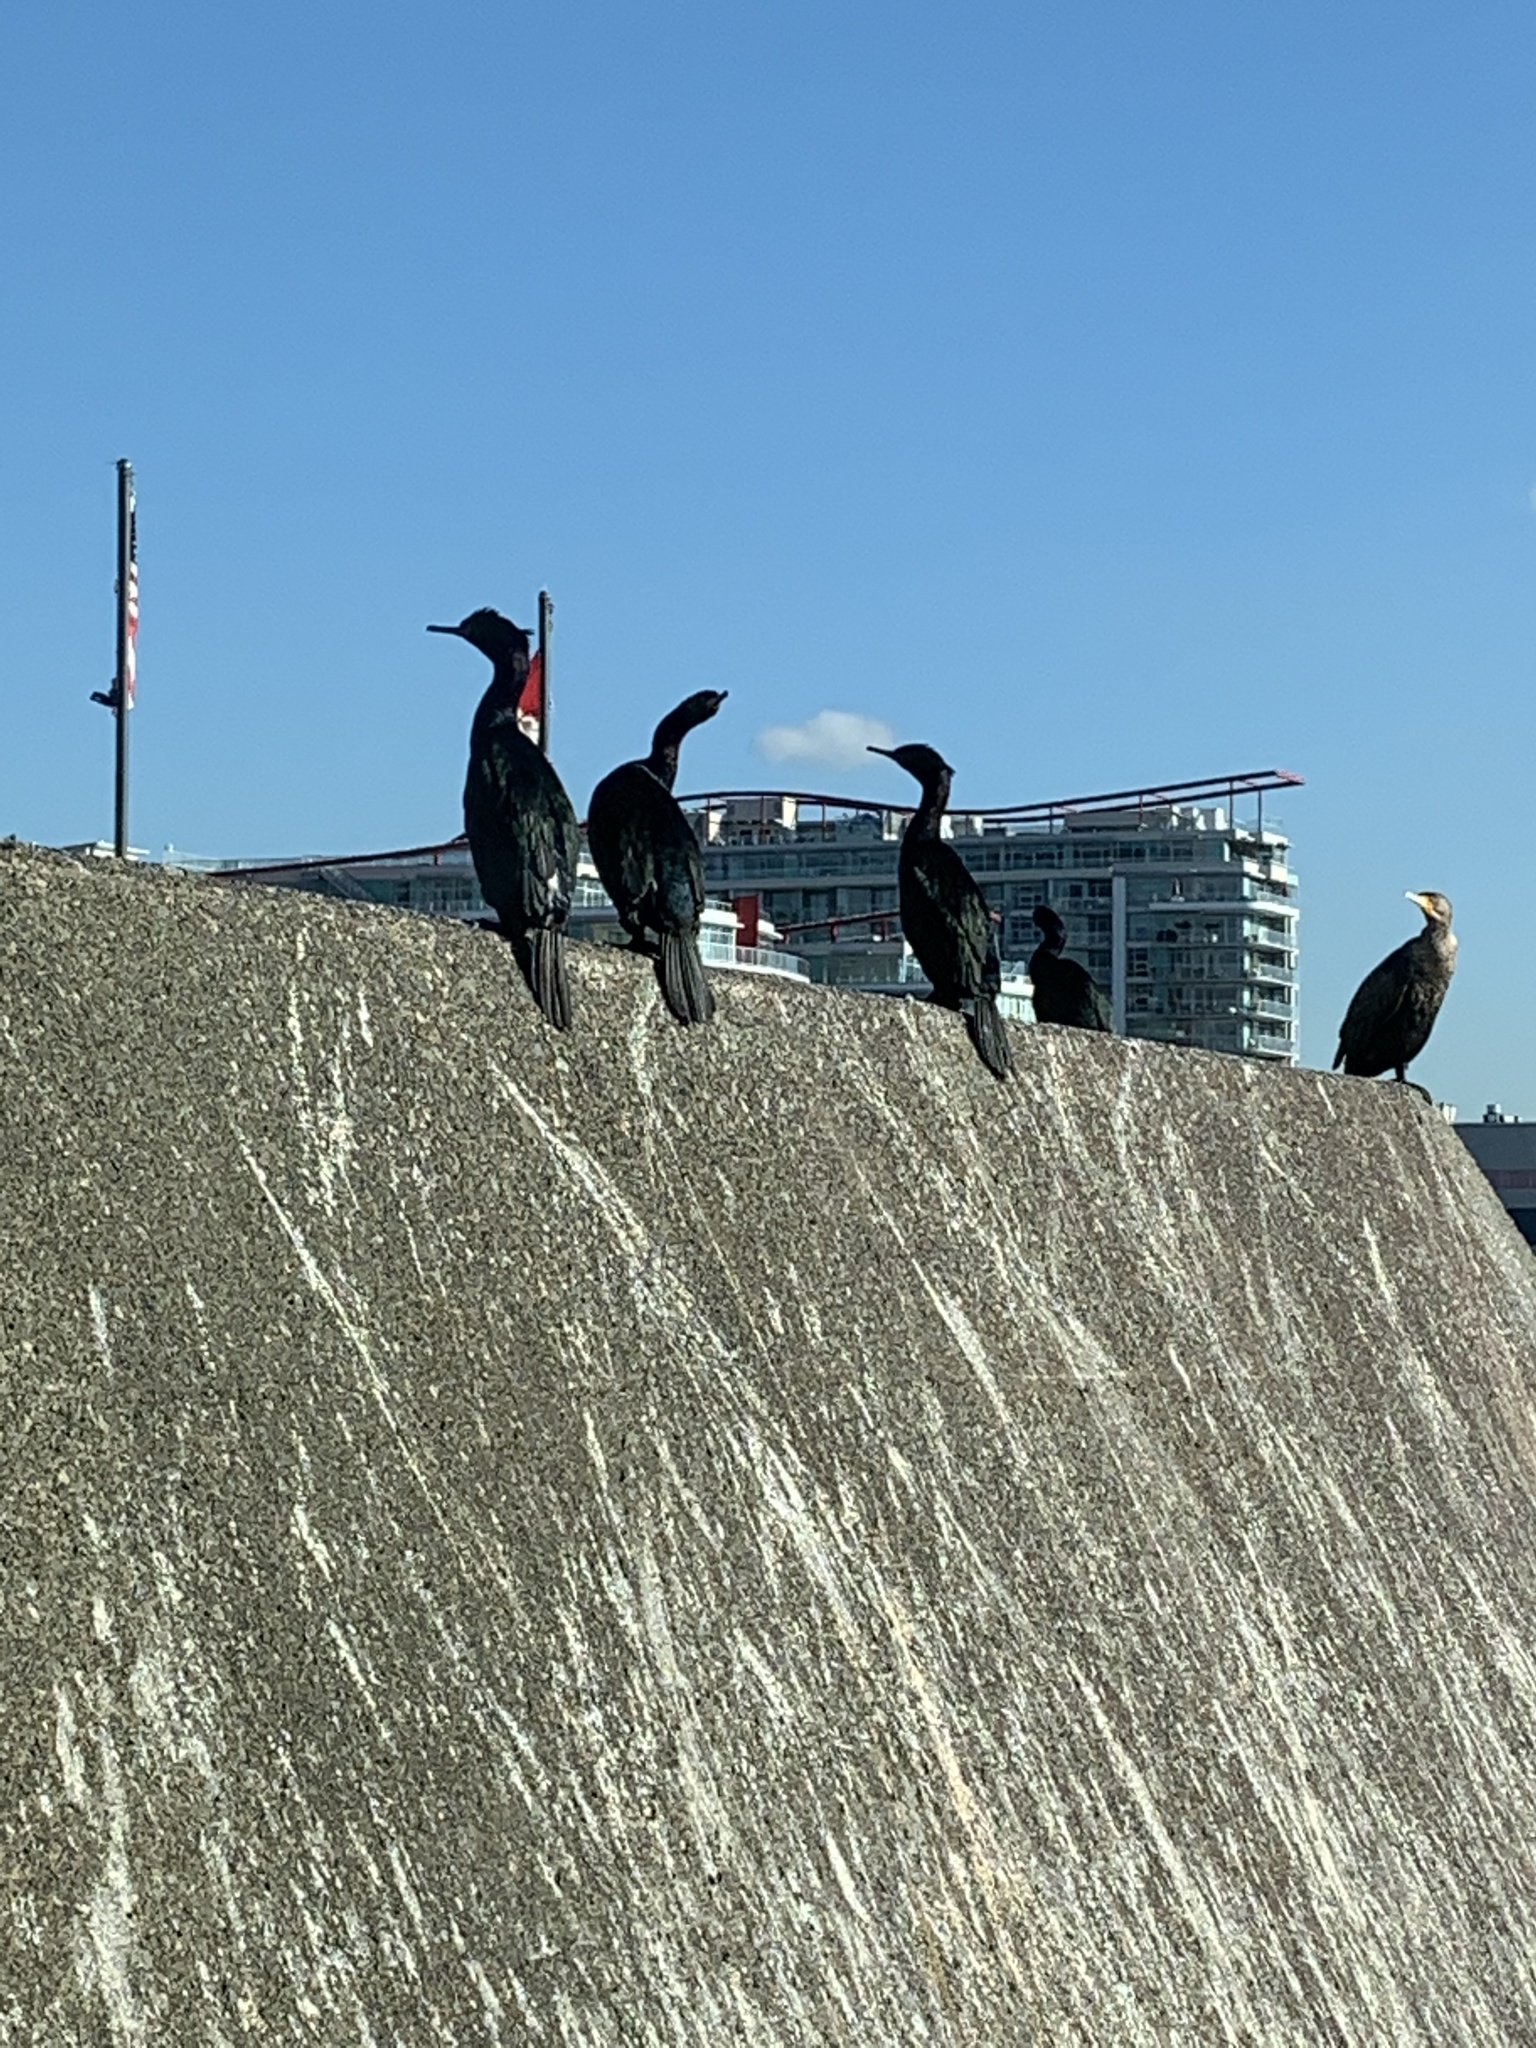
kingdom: Animalia
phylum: Chordata
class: Aves
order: Suliformes
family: Phalacrocoracidae
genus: Phalacrocorax
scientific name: Phalacrocorax pelagicus
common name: Pelagic cormorant
